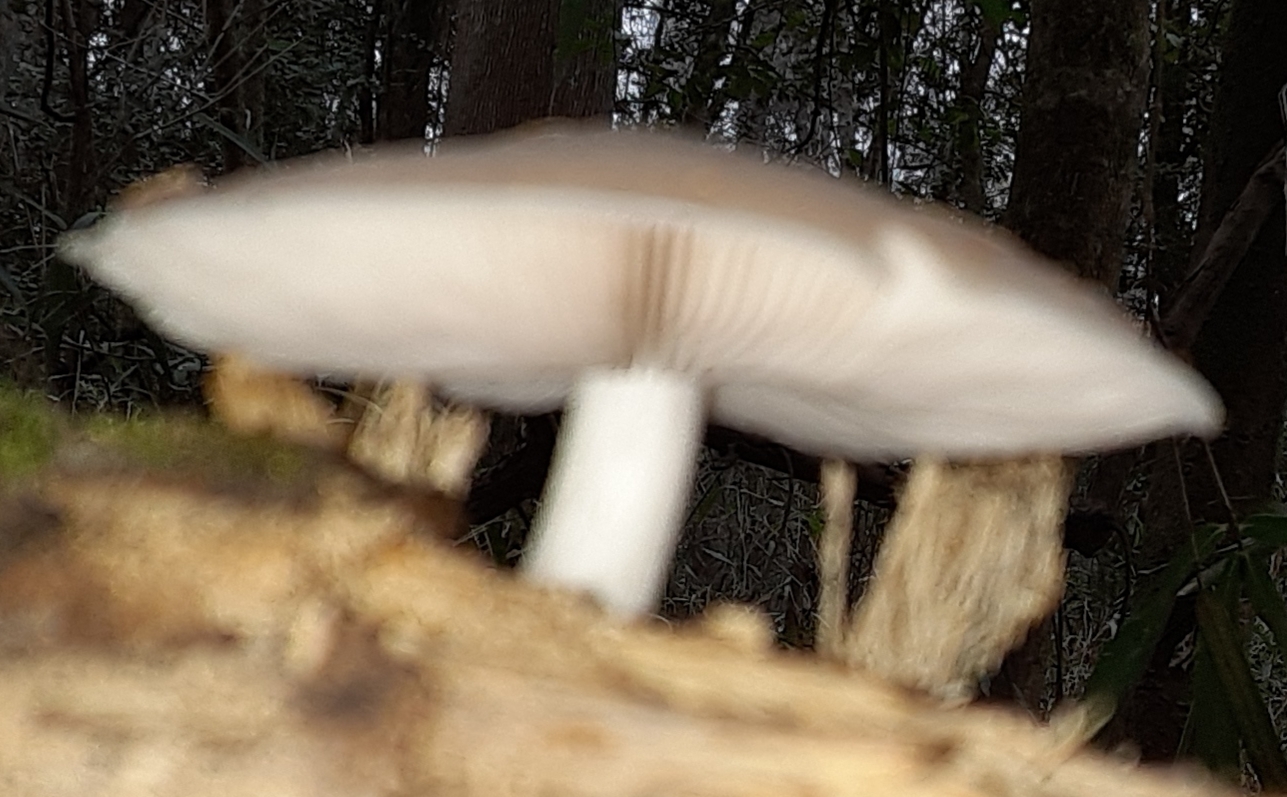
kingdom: Fungi
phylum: Basidiomycota
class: Agaricomycetes
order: Agaricales
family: Pluteaceae
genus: Pluteus
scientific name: Pluteus cervinus
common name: Deer shield
